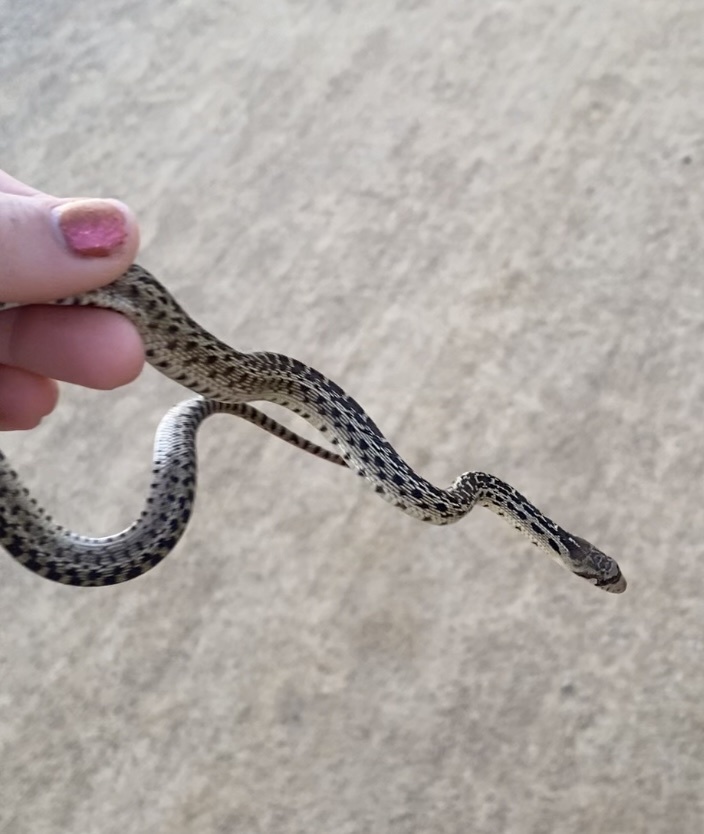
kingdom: Animalia
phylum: Chordata
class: Squamata
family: Colubridae
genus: Pituophis
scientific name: Pituophis catenifer
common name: Gopher snake
